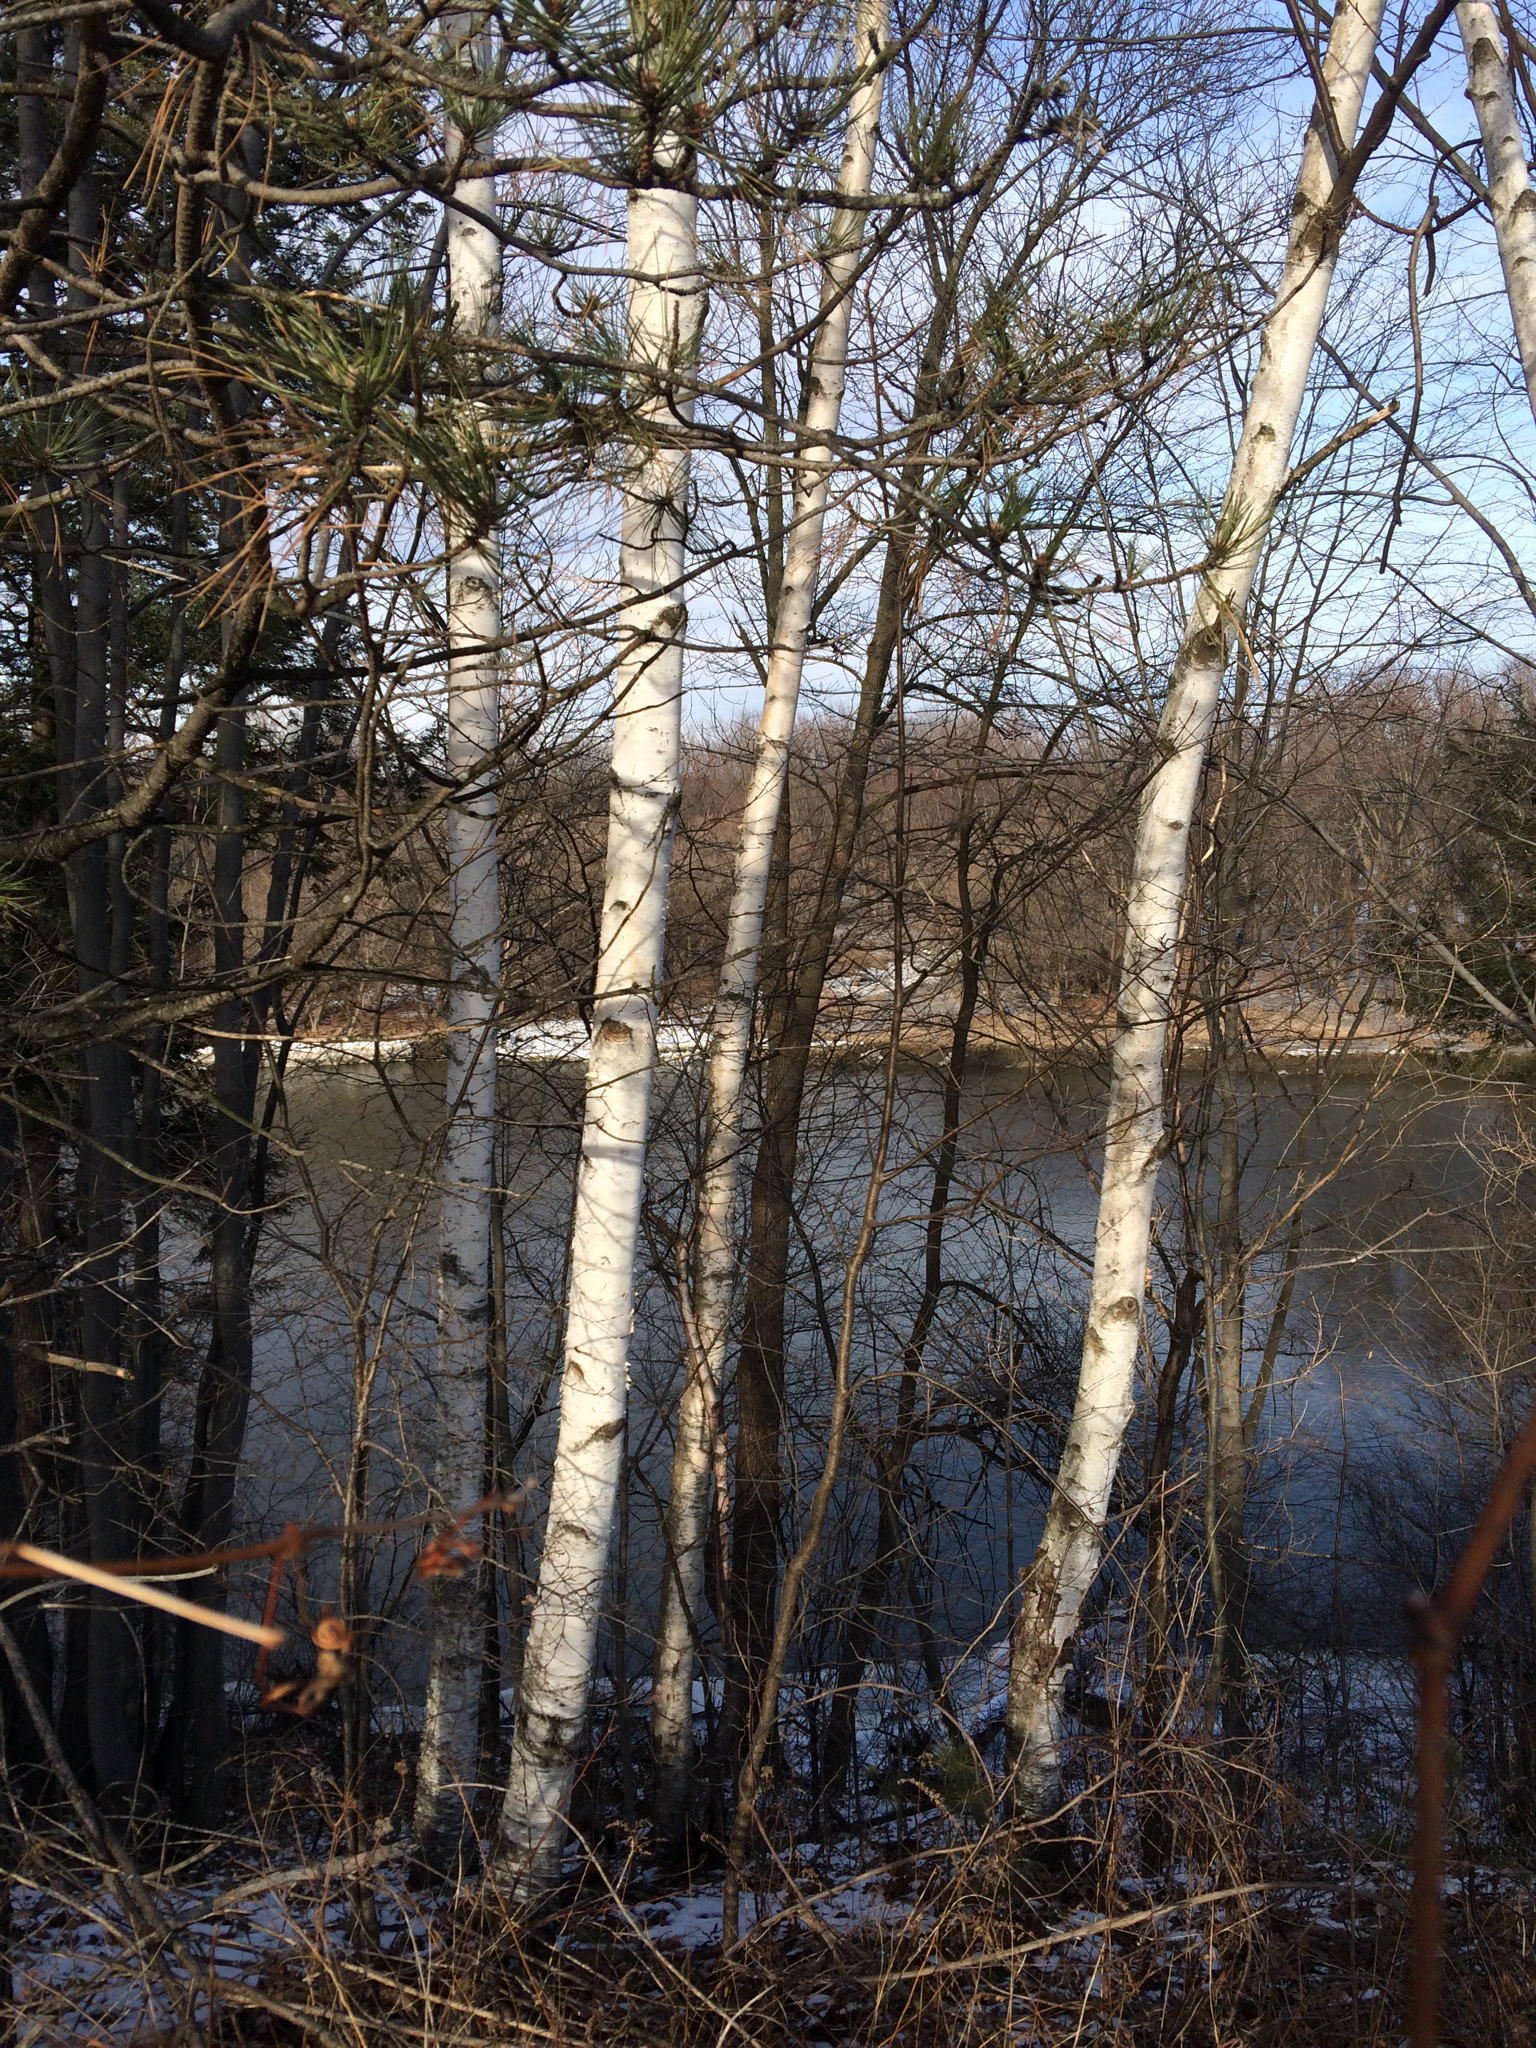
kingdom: Plantae
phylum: Tracheophyta
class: Magnoliopsida
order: Fagales
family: Betulaceae
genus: Betula
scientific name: Betula papyrifera
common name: Paper birch
